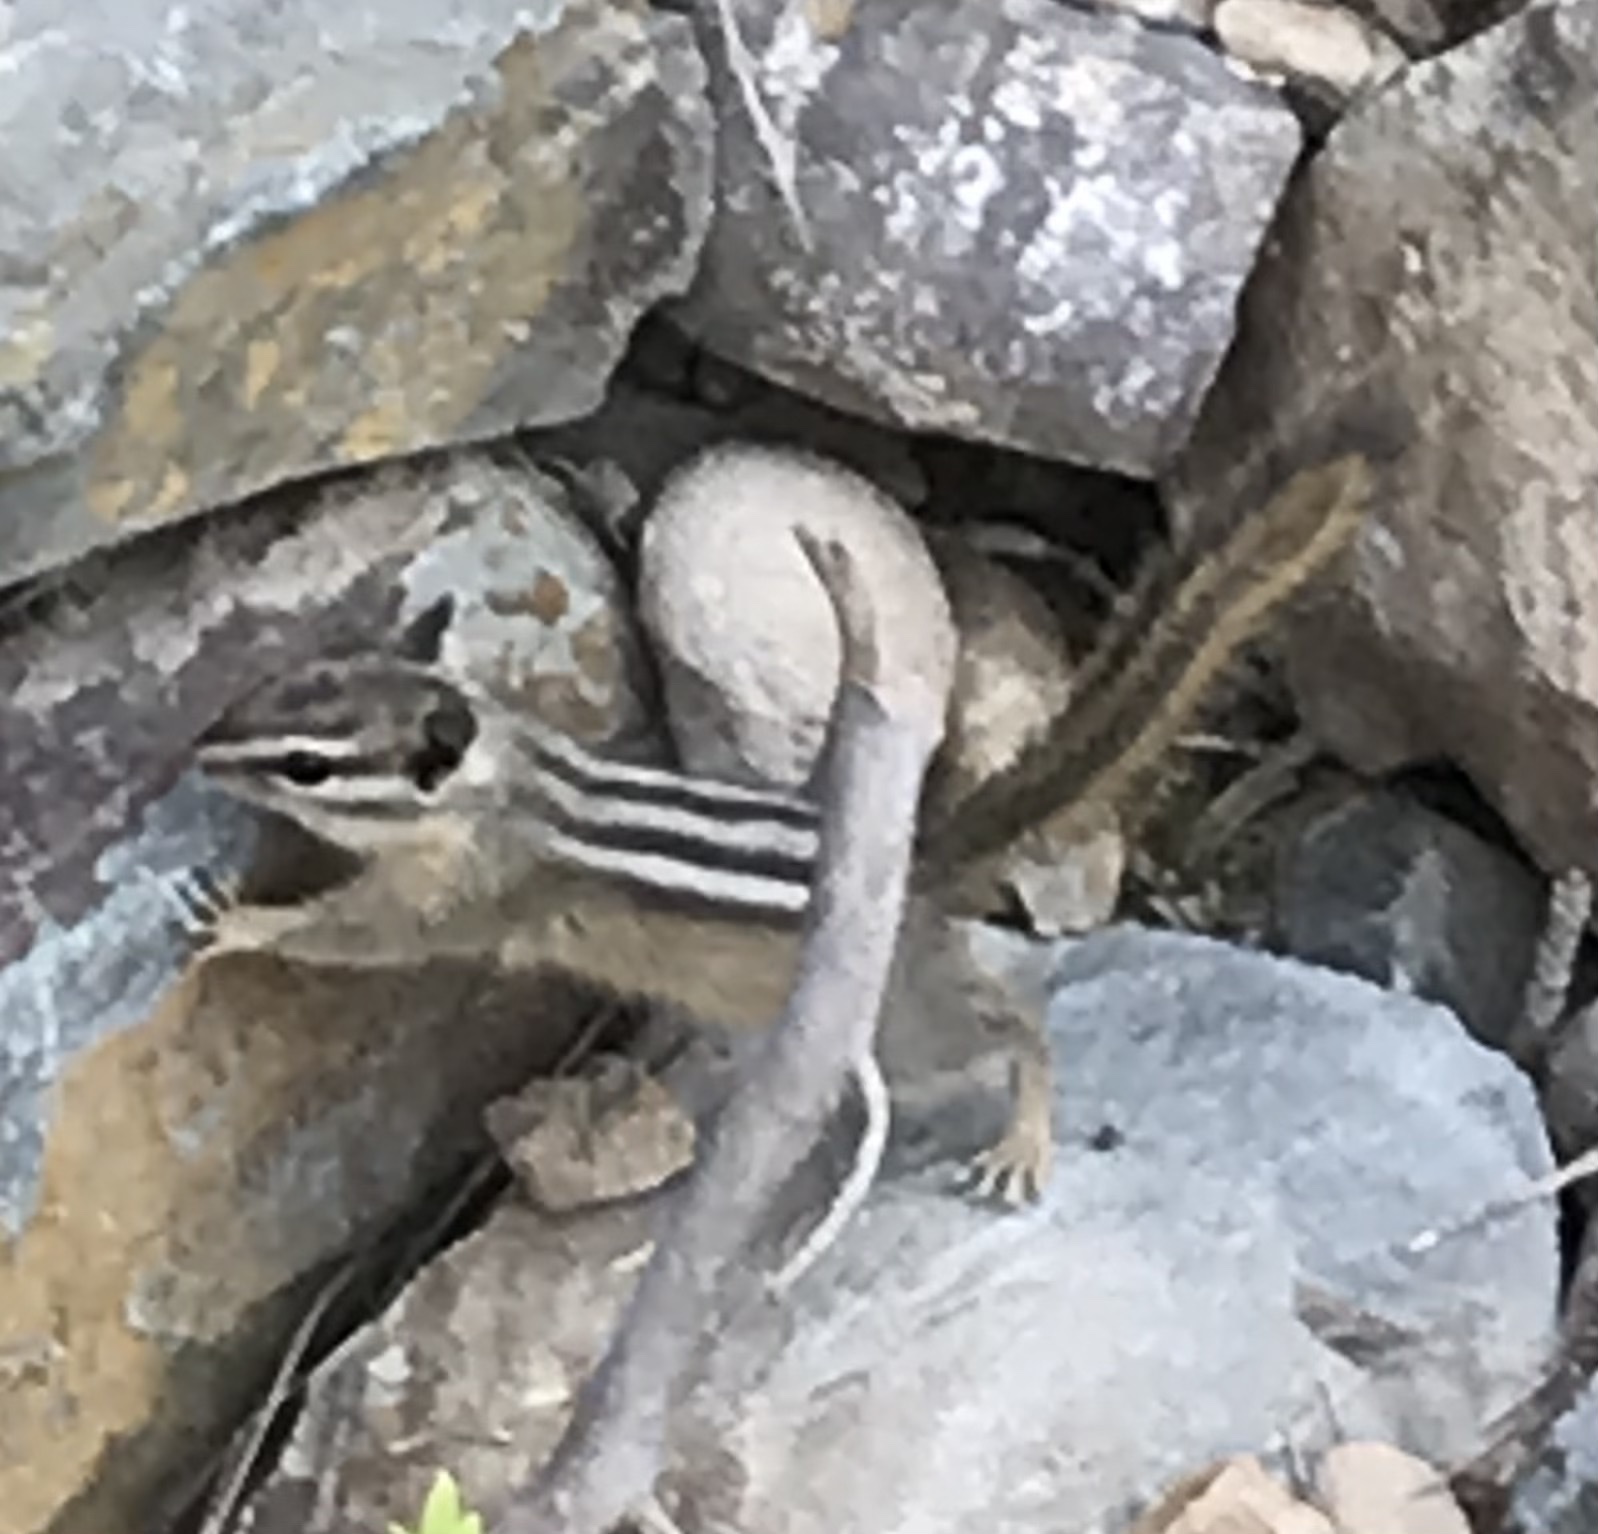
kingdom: Animalia
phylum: Chordata
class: Mammalia
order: Rodentia
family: Sciuridae
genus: Tamias
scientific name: Tamias minimus
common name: Least chipmunk
